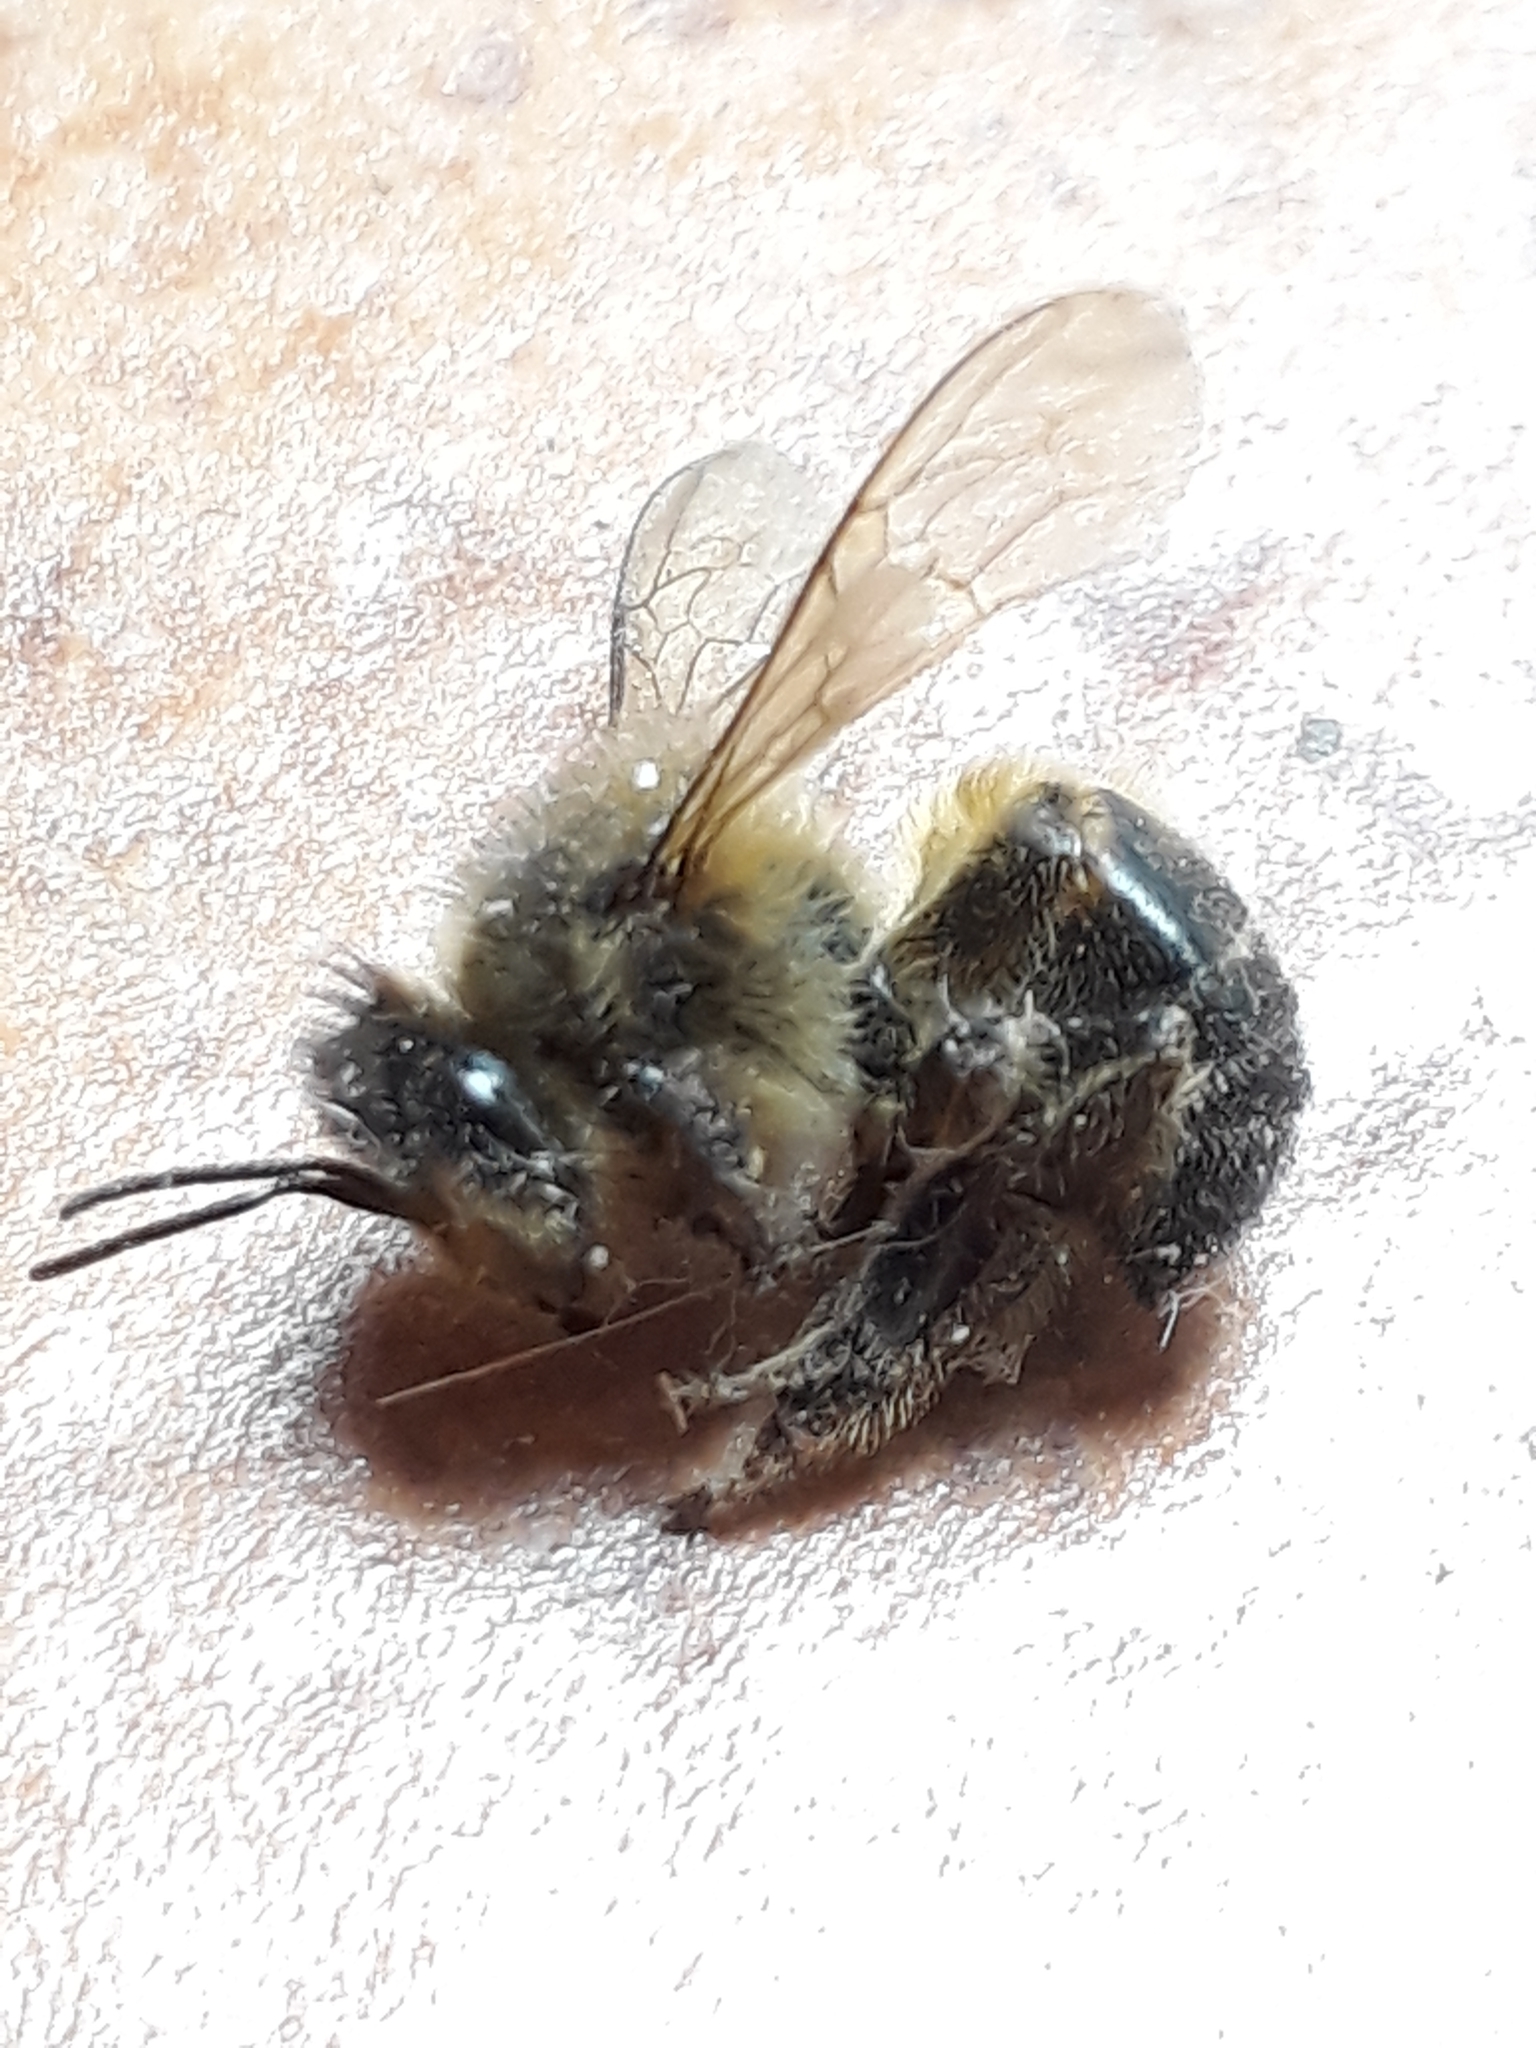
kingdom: Animalia
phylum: Arthropoda
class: Insecta
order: Hymenoptera
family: Apidae
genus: Apis
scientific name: Apis mellifera
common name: Honey bee
